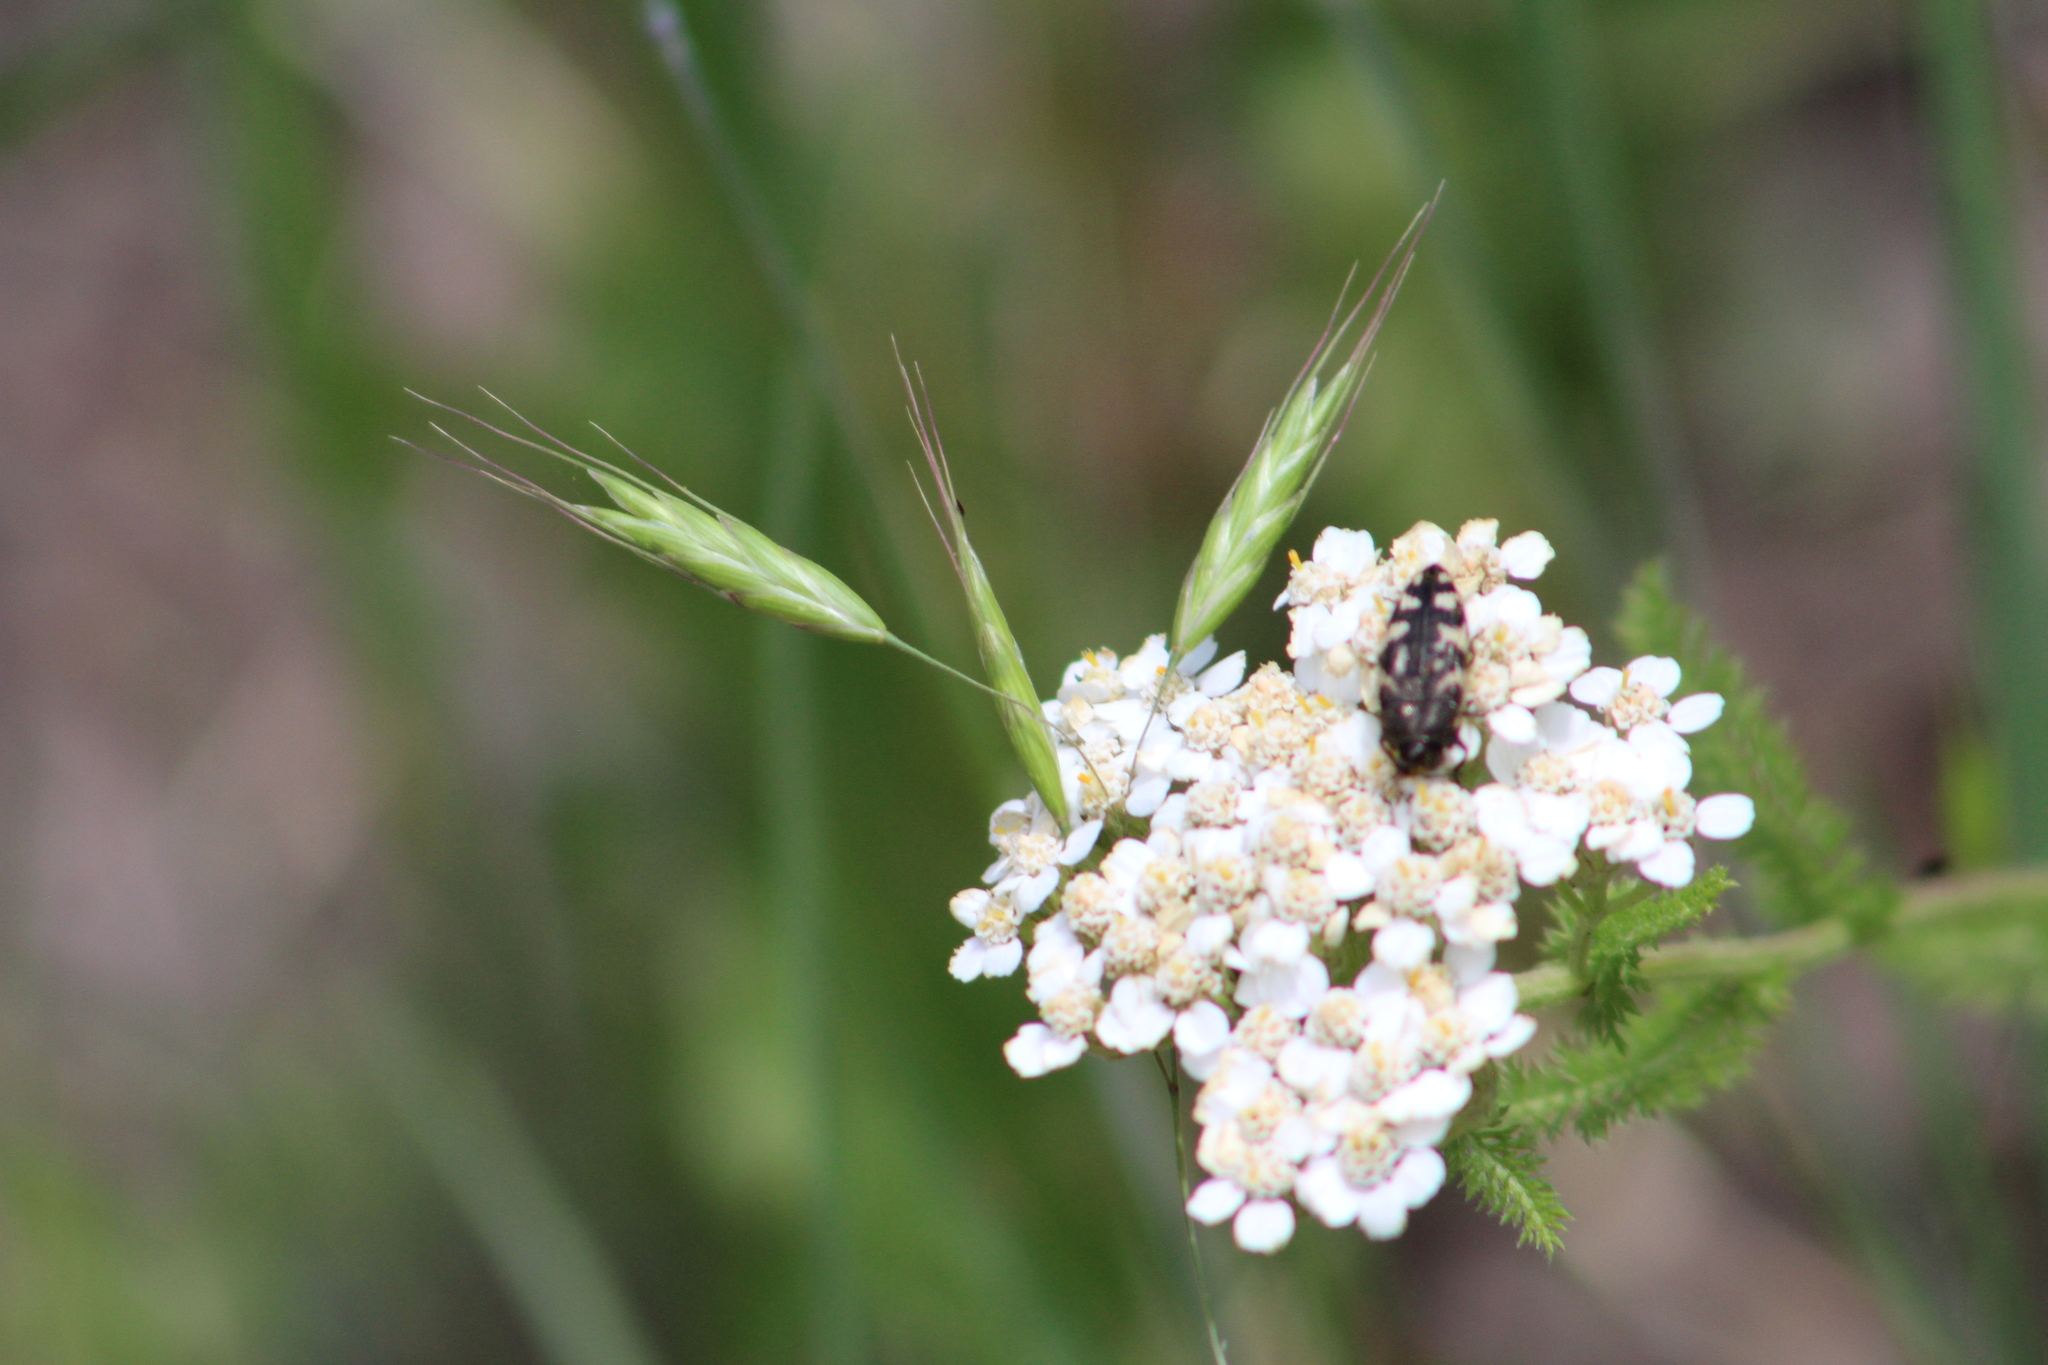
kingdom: Animalia
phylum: Arthropoda
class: Insecta
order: Coleoptera
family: Buprestidae
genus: Acmaeodera
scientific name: Acmaeodera diffusa
